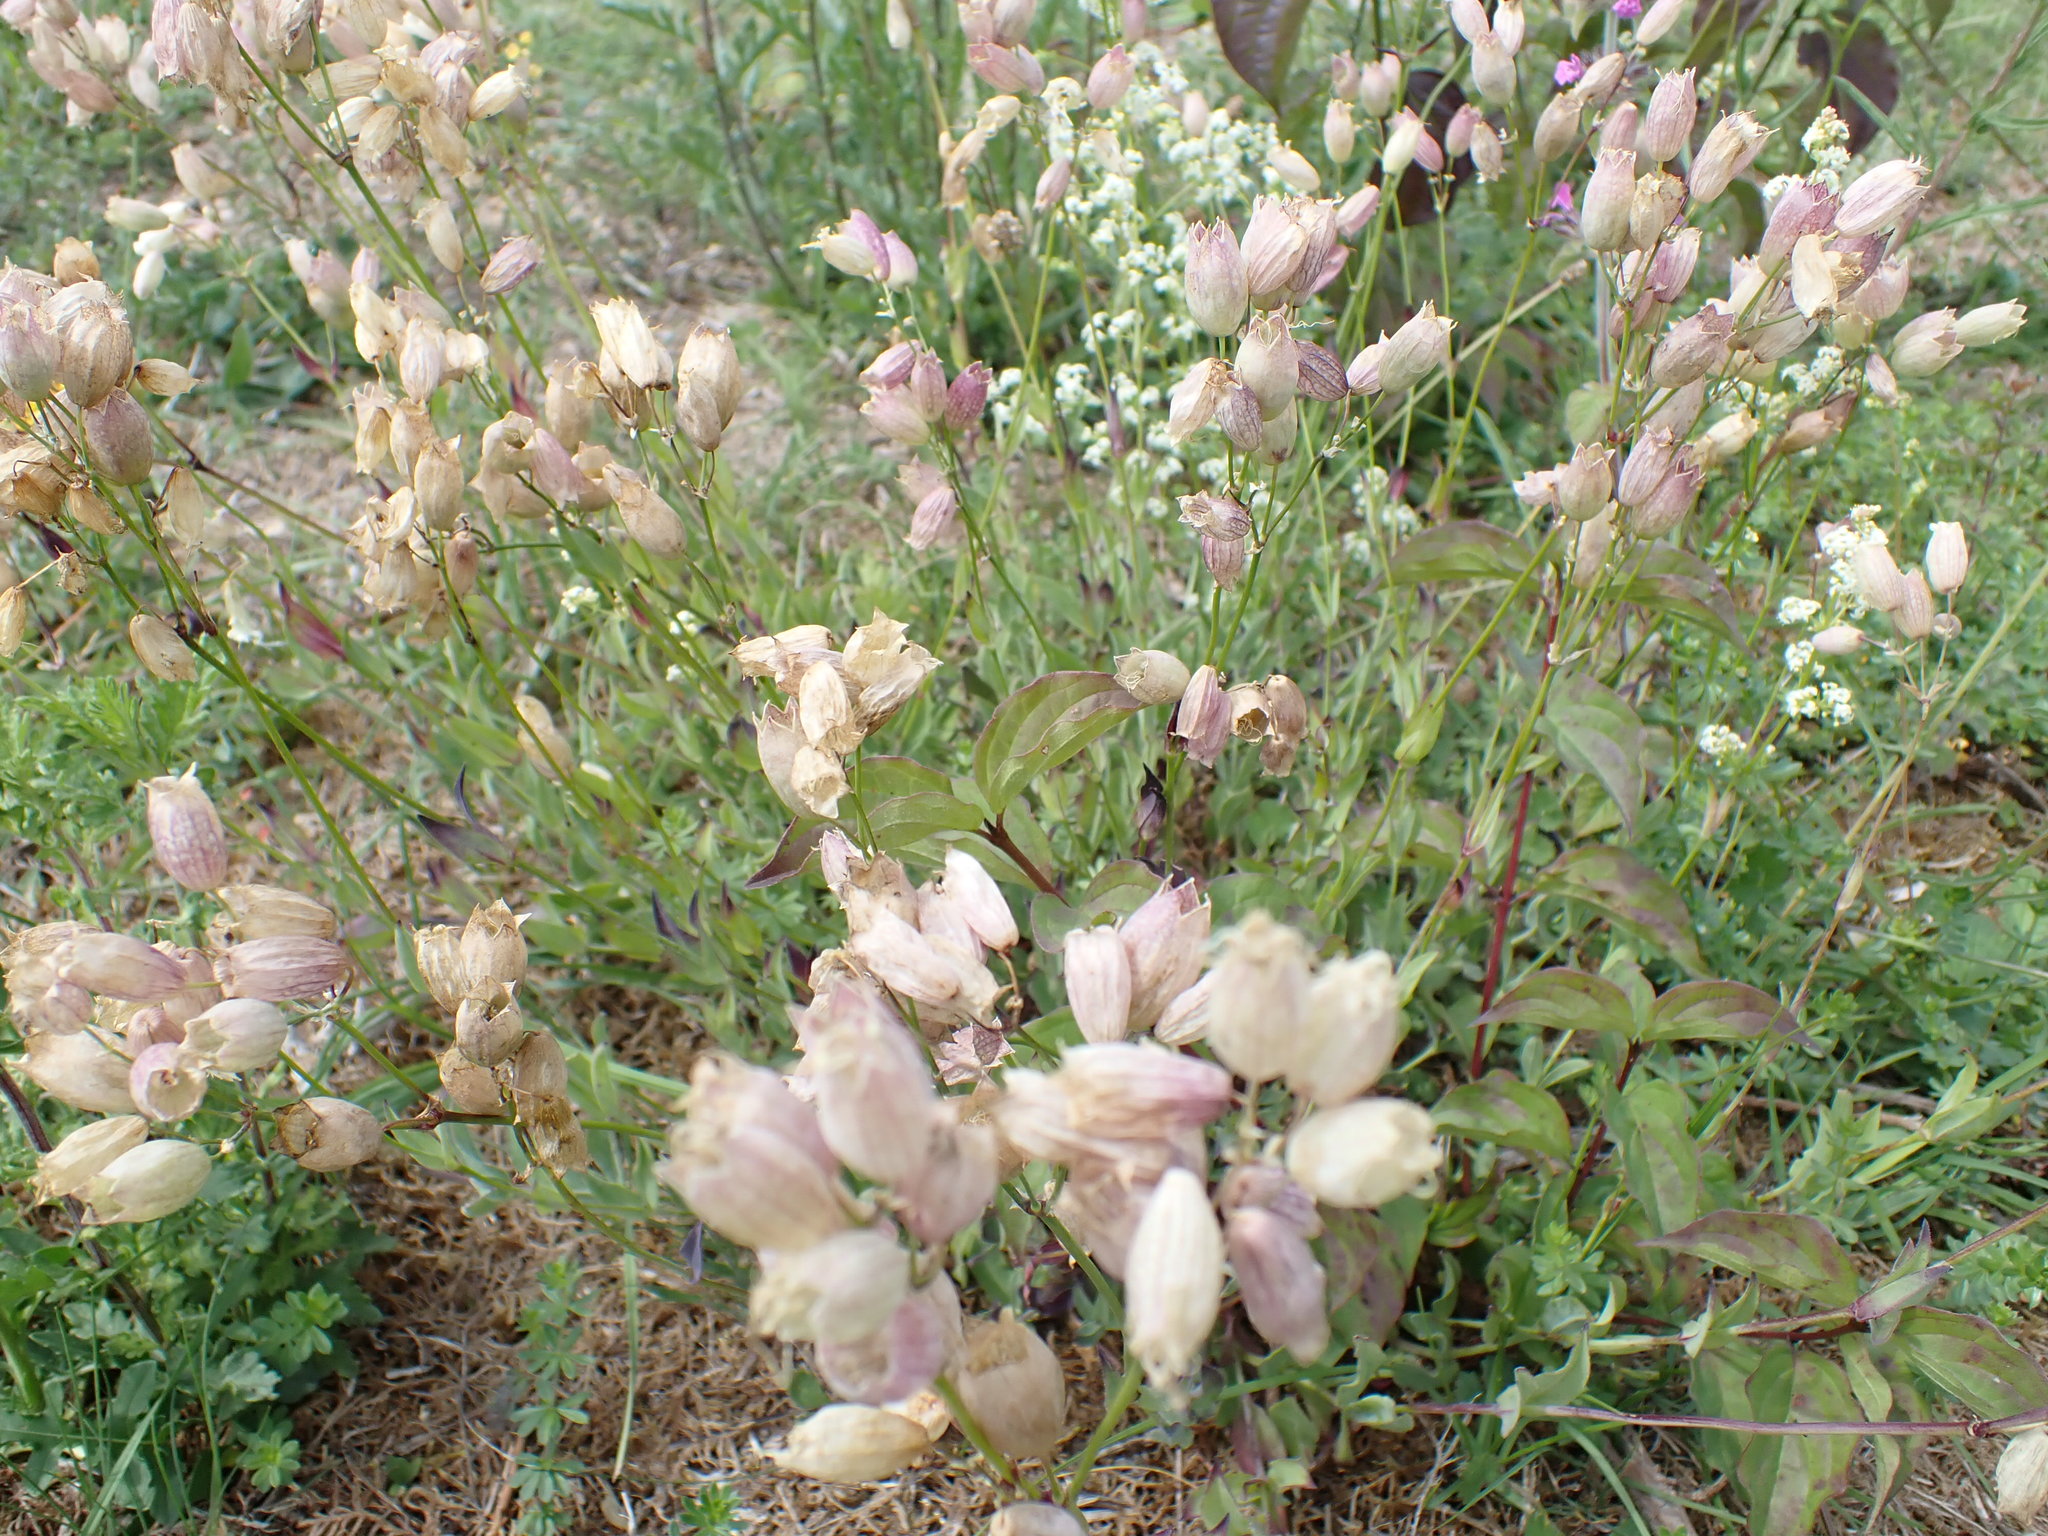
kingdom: Plantae
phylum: Tracheophyta
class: Magnoliopsida
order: Caryophyllales
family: Caryophyllaceae
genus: Silene
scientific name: Silene vulgaris
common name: Bladder campion
